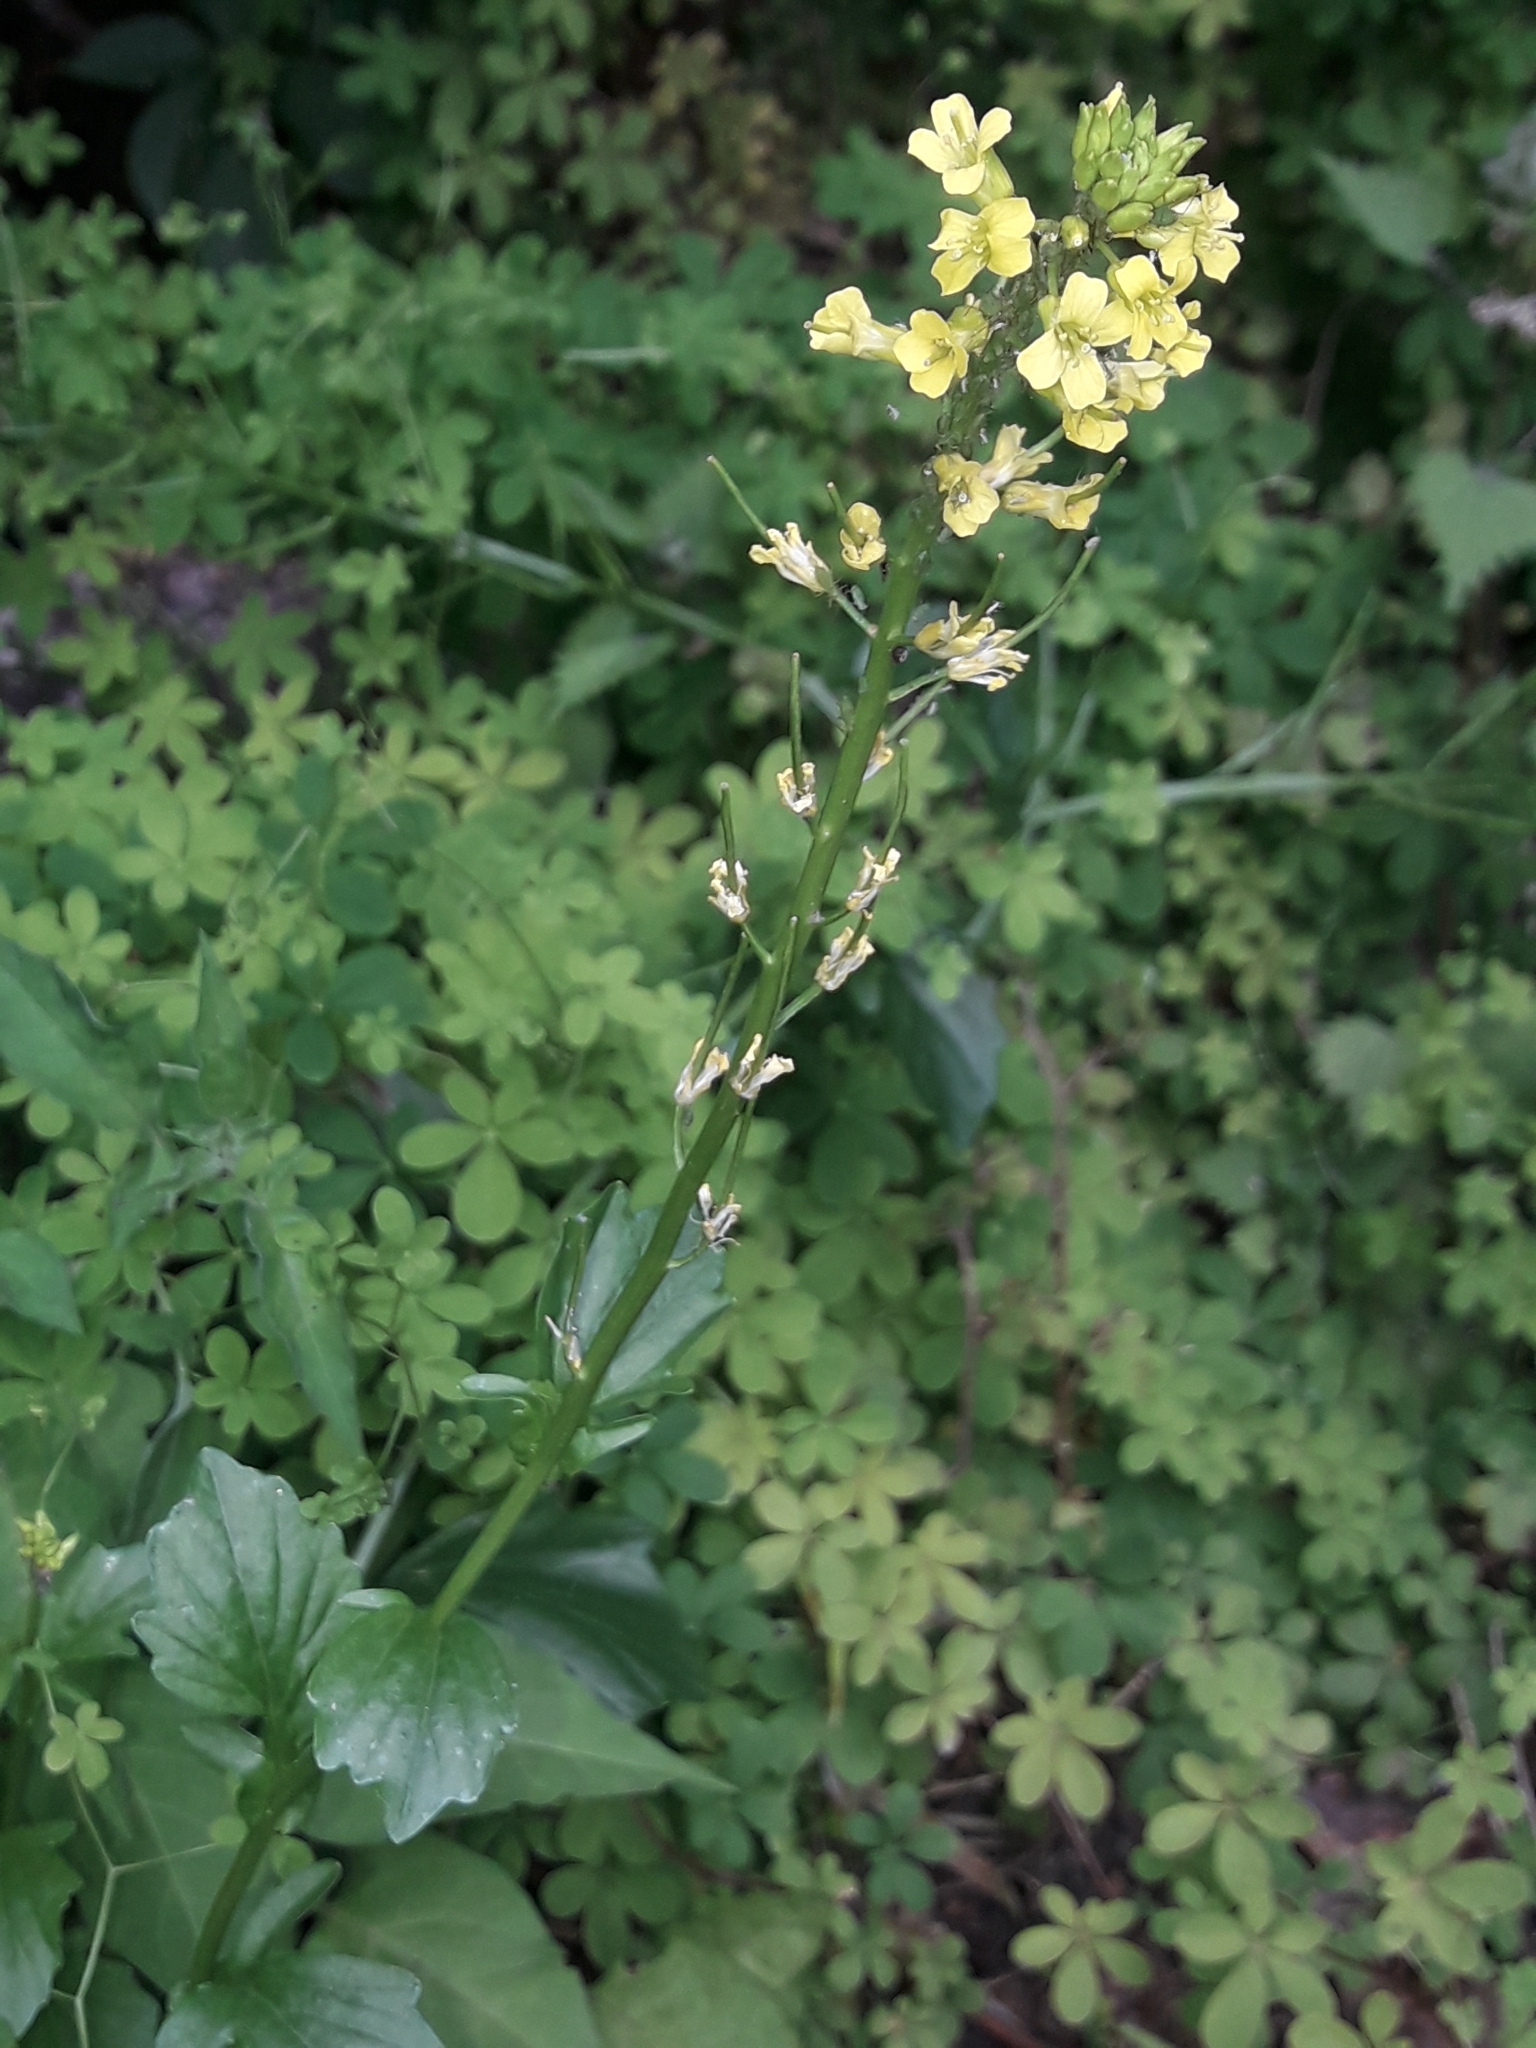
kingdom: Plantae
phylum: Tracheophyta
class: Magnoliopsida
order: Brassicales
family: Brassicaceae
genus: Barbarea
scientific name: Barbarea intermedia
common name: Medium-flowered winter-cress
